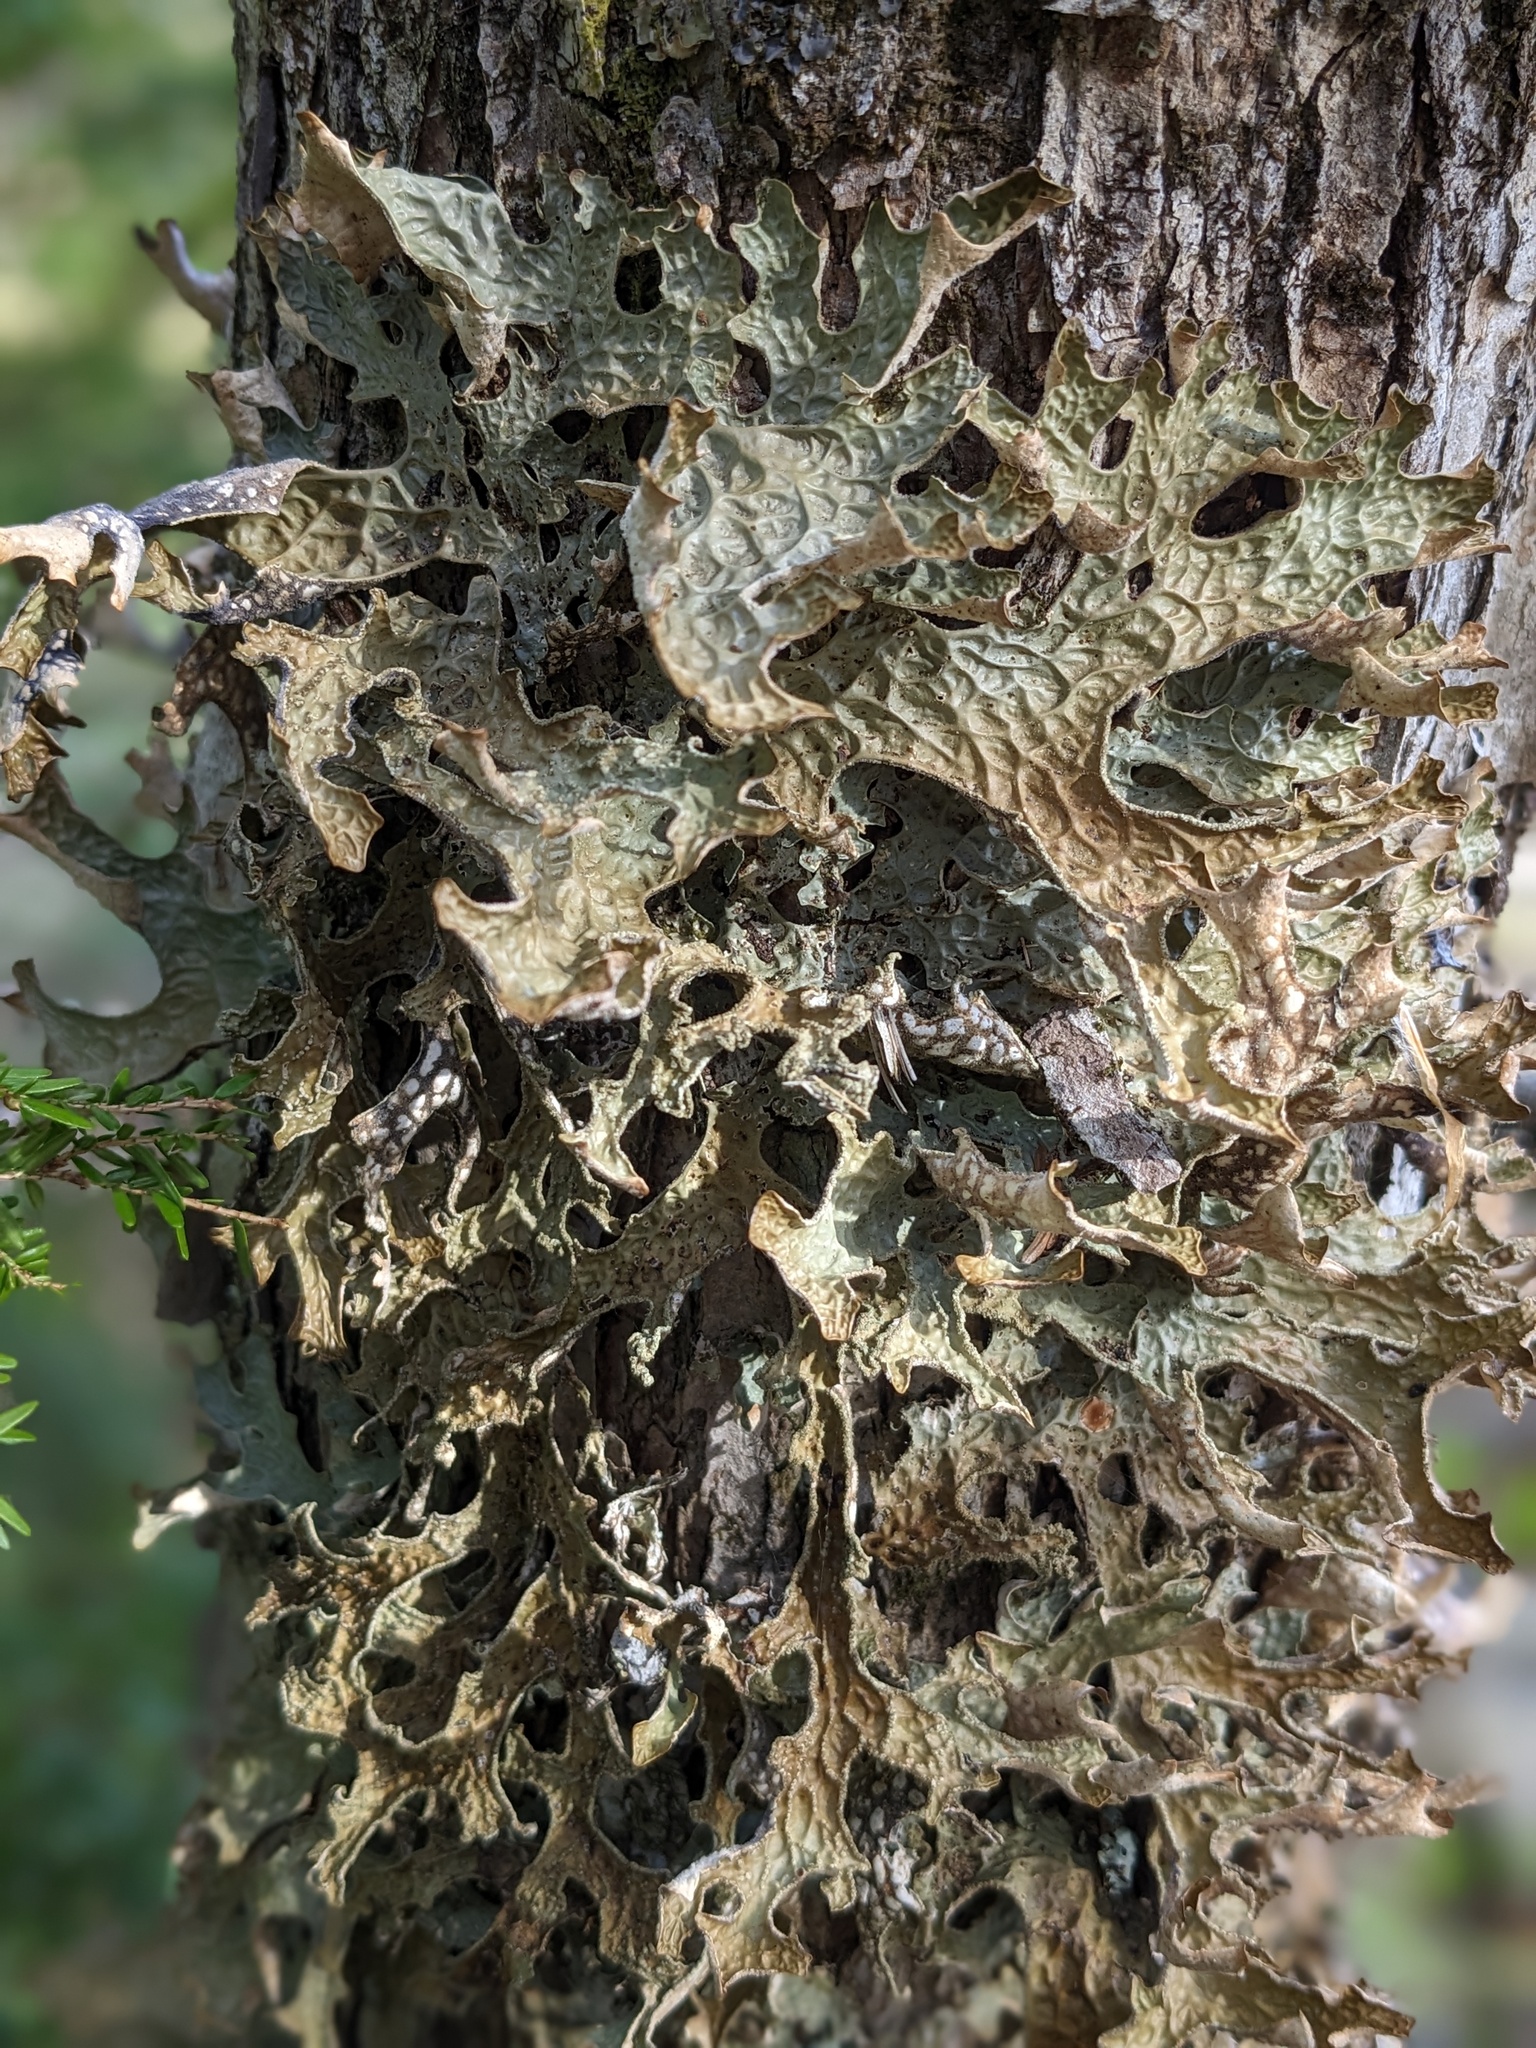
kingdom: Fungi
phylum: Ascomycota
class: Lecanoromycetes
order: Peltigerales
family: Lobariaceae
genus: Lobaria
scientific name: Lobaria pulmonaria
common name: Lungwort
